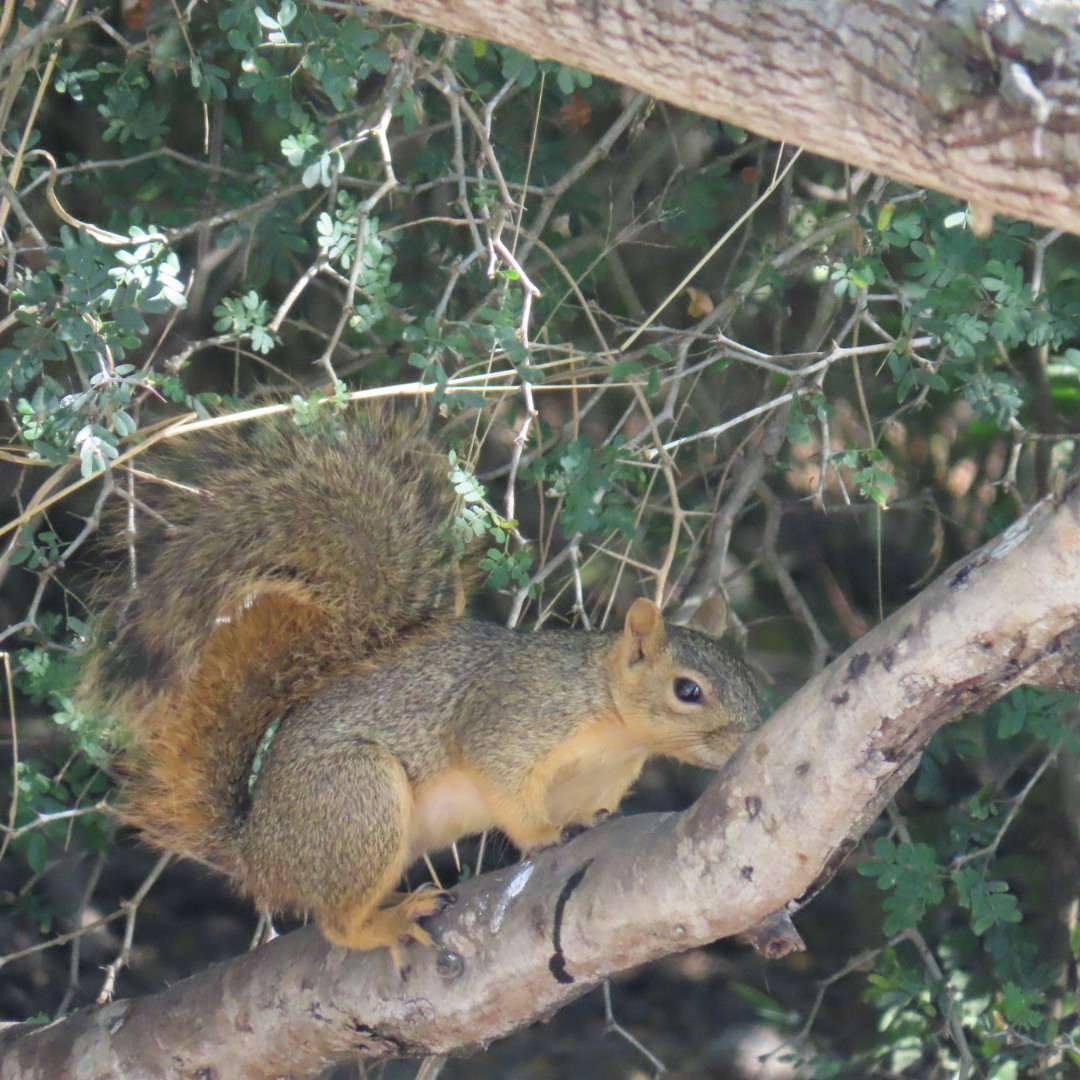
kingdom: Animalia
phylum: Chordata
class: Mammalia
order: Rodentia
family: Sciuridae
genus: Sciurus
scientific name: Sciurus niger
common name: Fox squirrel
